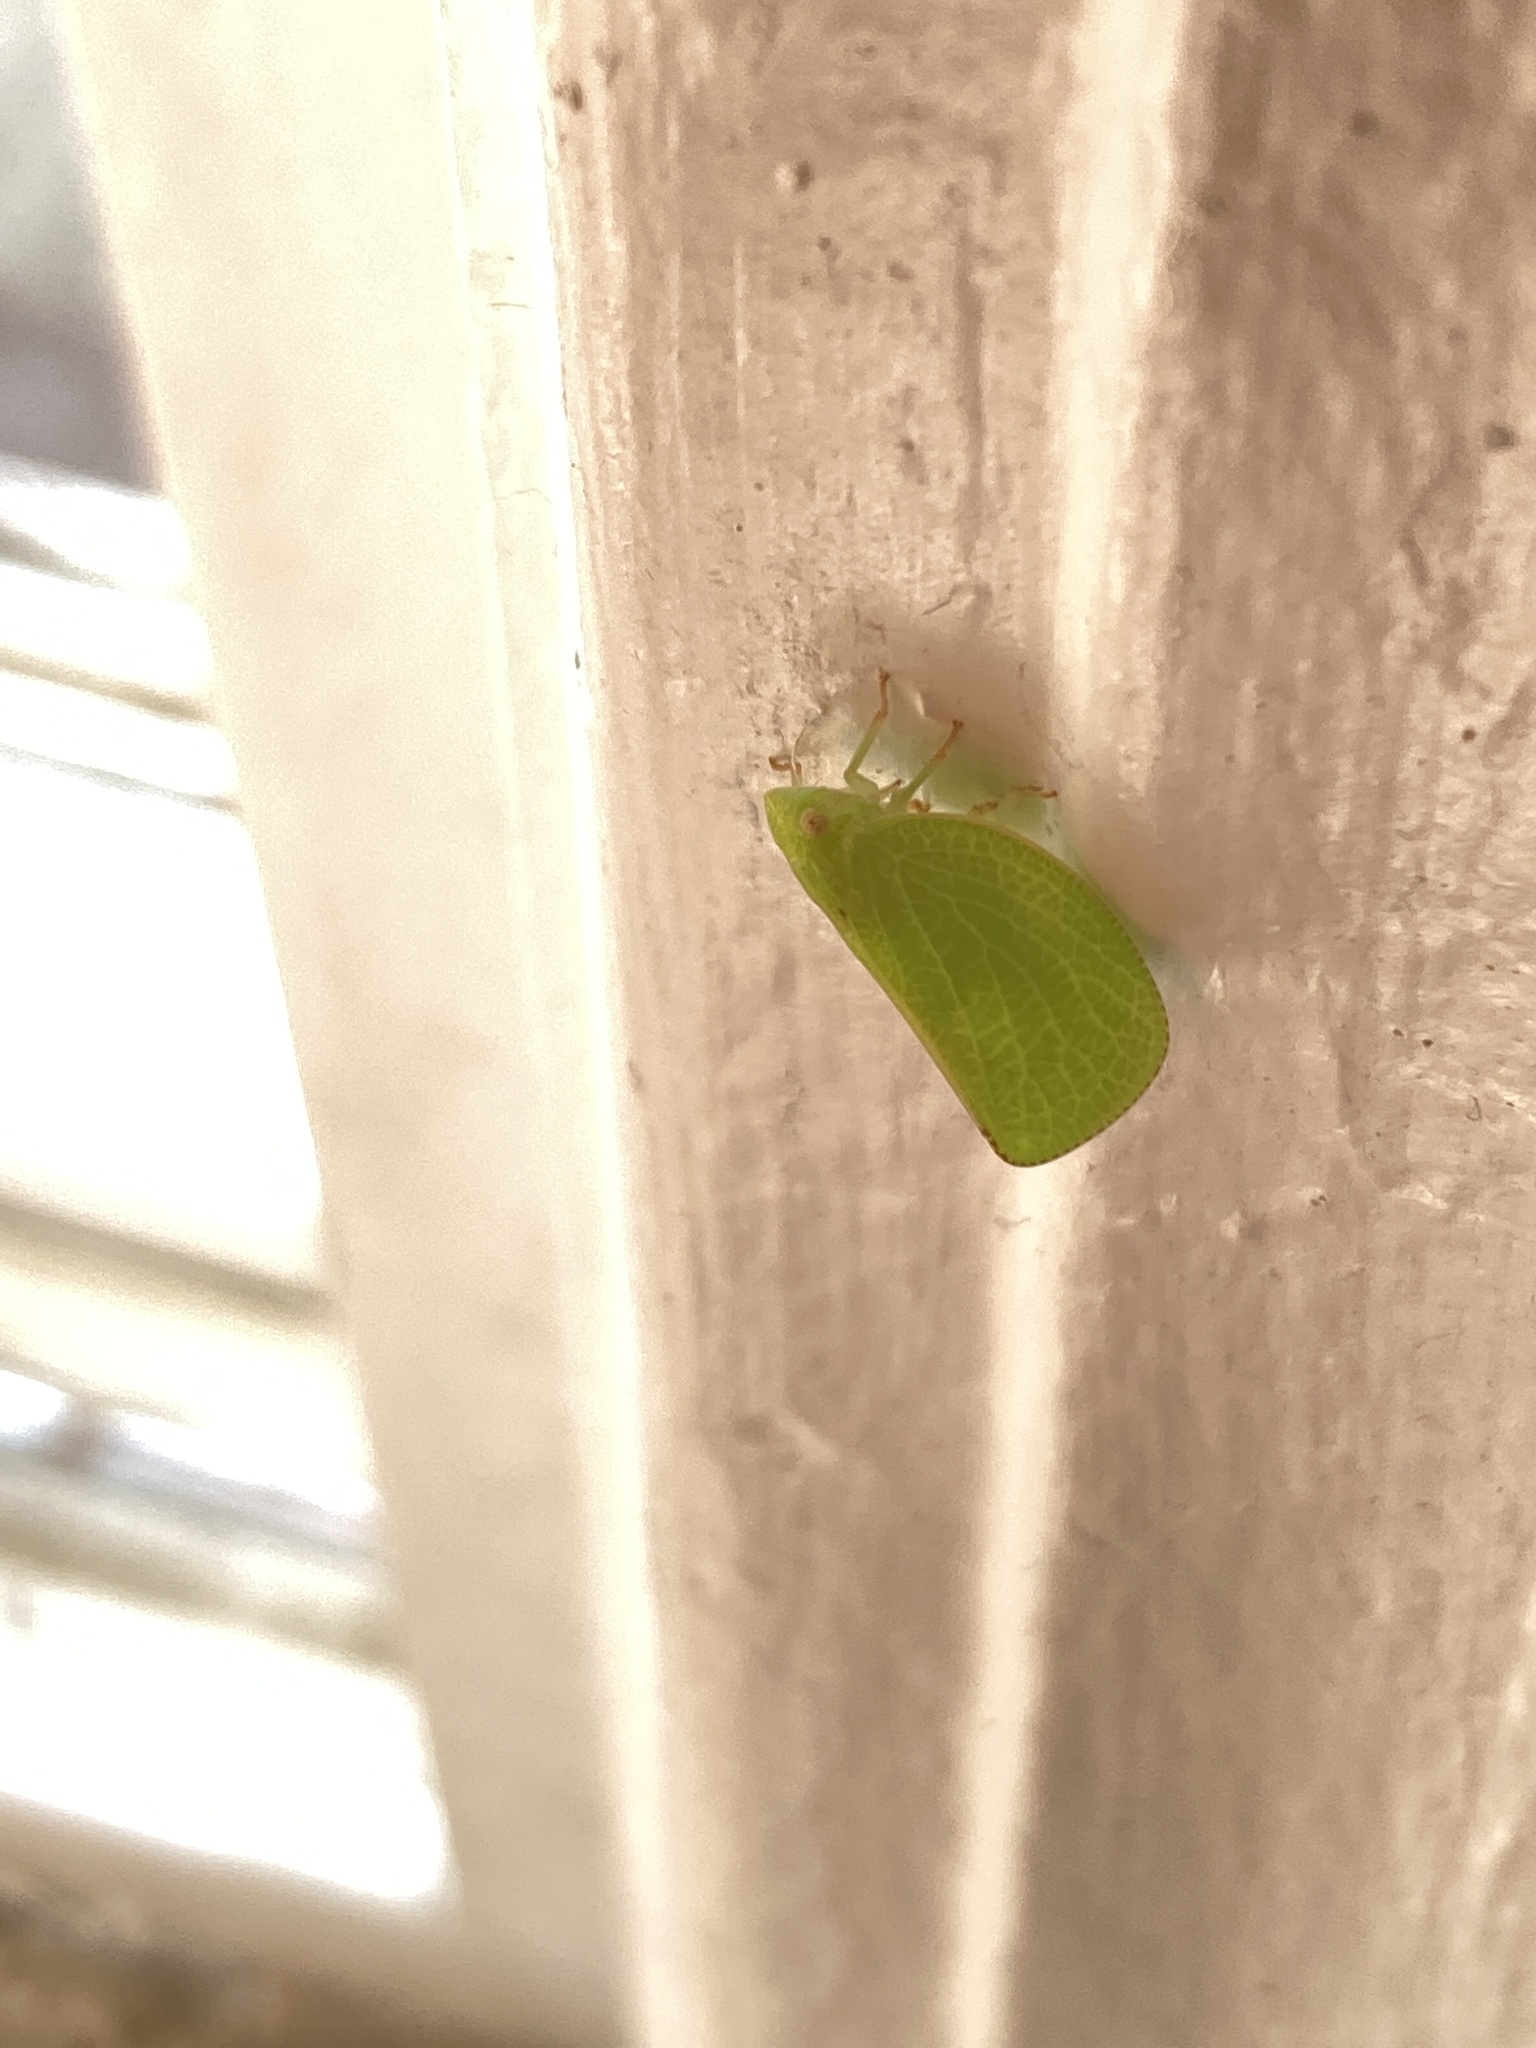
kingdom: Animalia
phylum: Arthropoda
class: Insecta
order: Hemiptera
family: Acanaloniidae
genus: Acanalonia
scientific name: Acanalonia conica
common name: Green cone-headed planthopper
